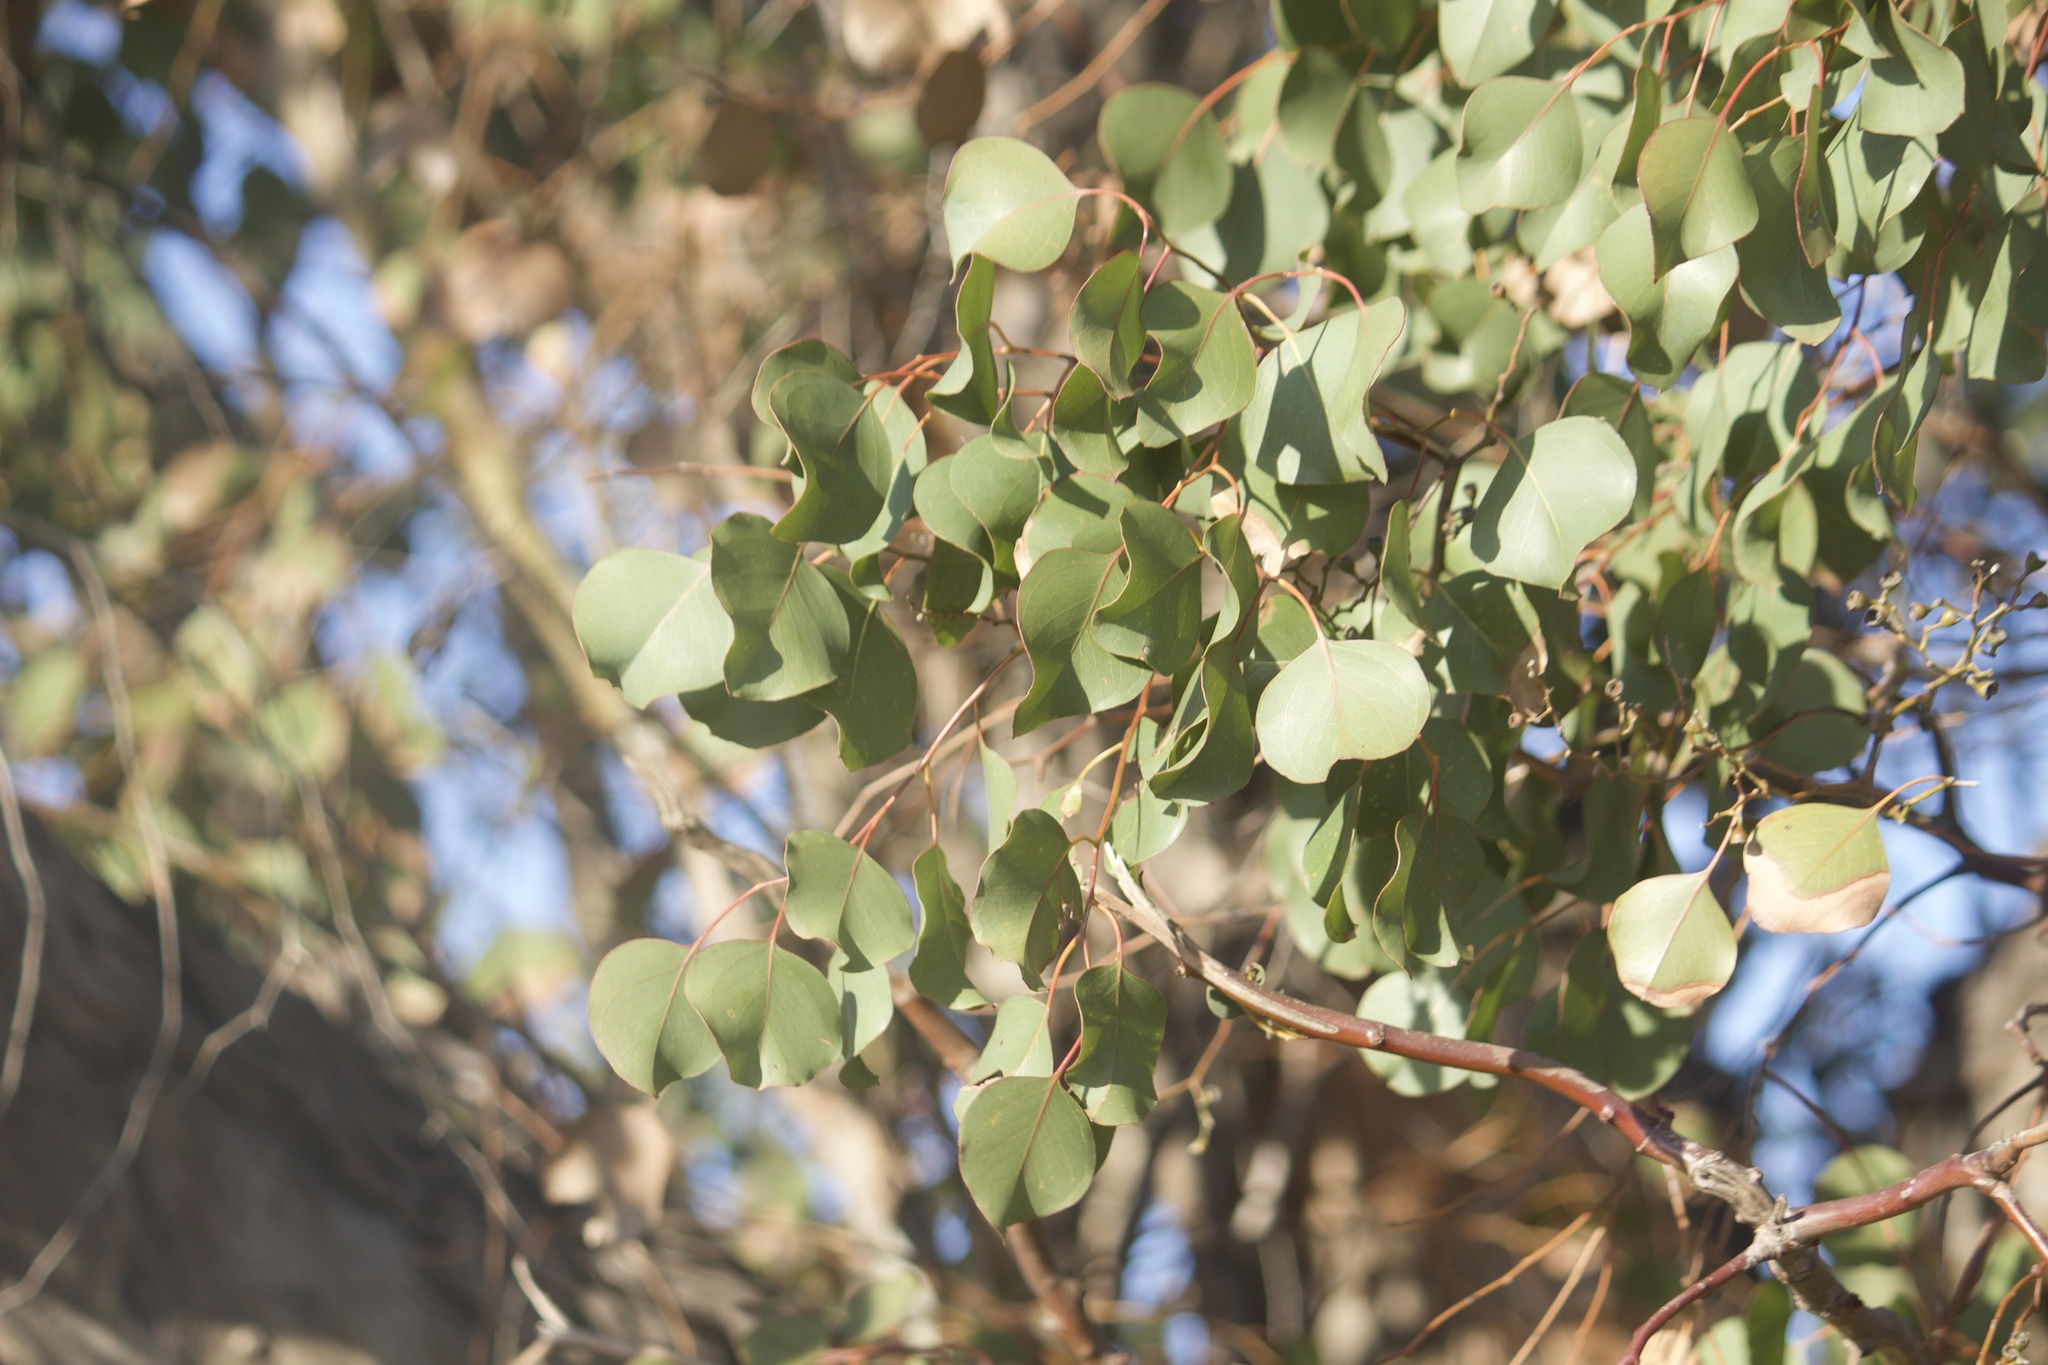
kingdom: Plantae
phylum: Tracheophyta
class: Magnoliopsida
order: Myrtales
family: Myrtaceae
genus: Eucalyptus
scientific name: Eucalyptus polyanthemos
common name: Red-box
